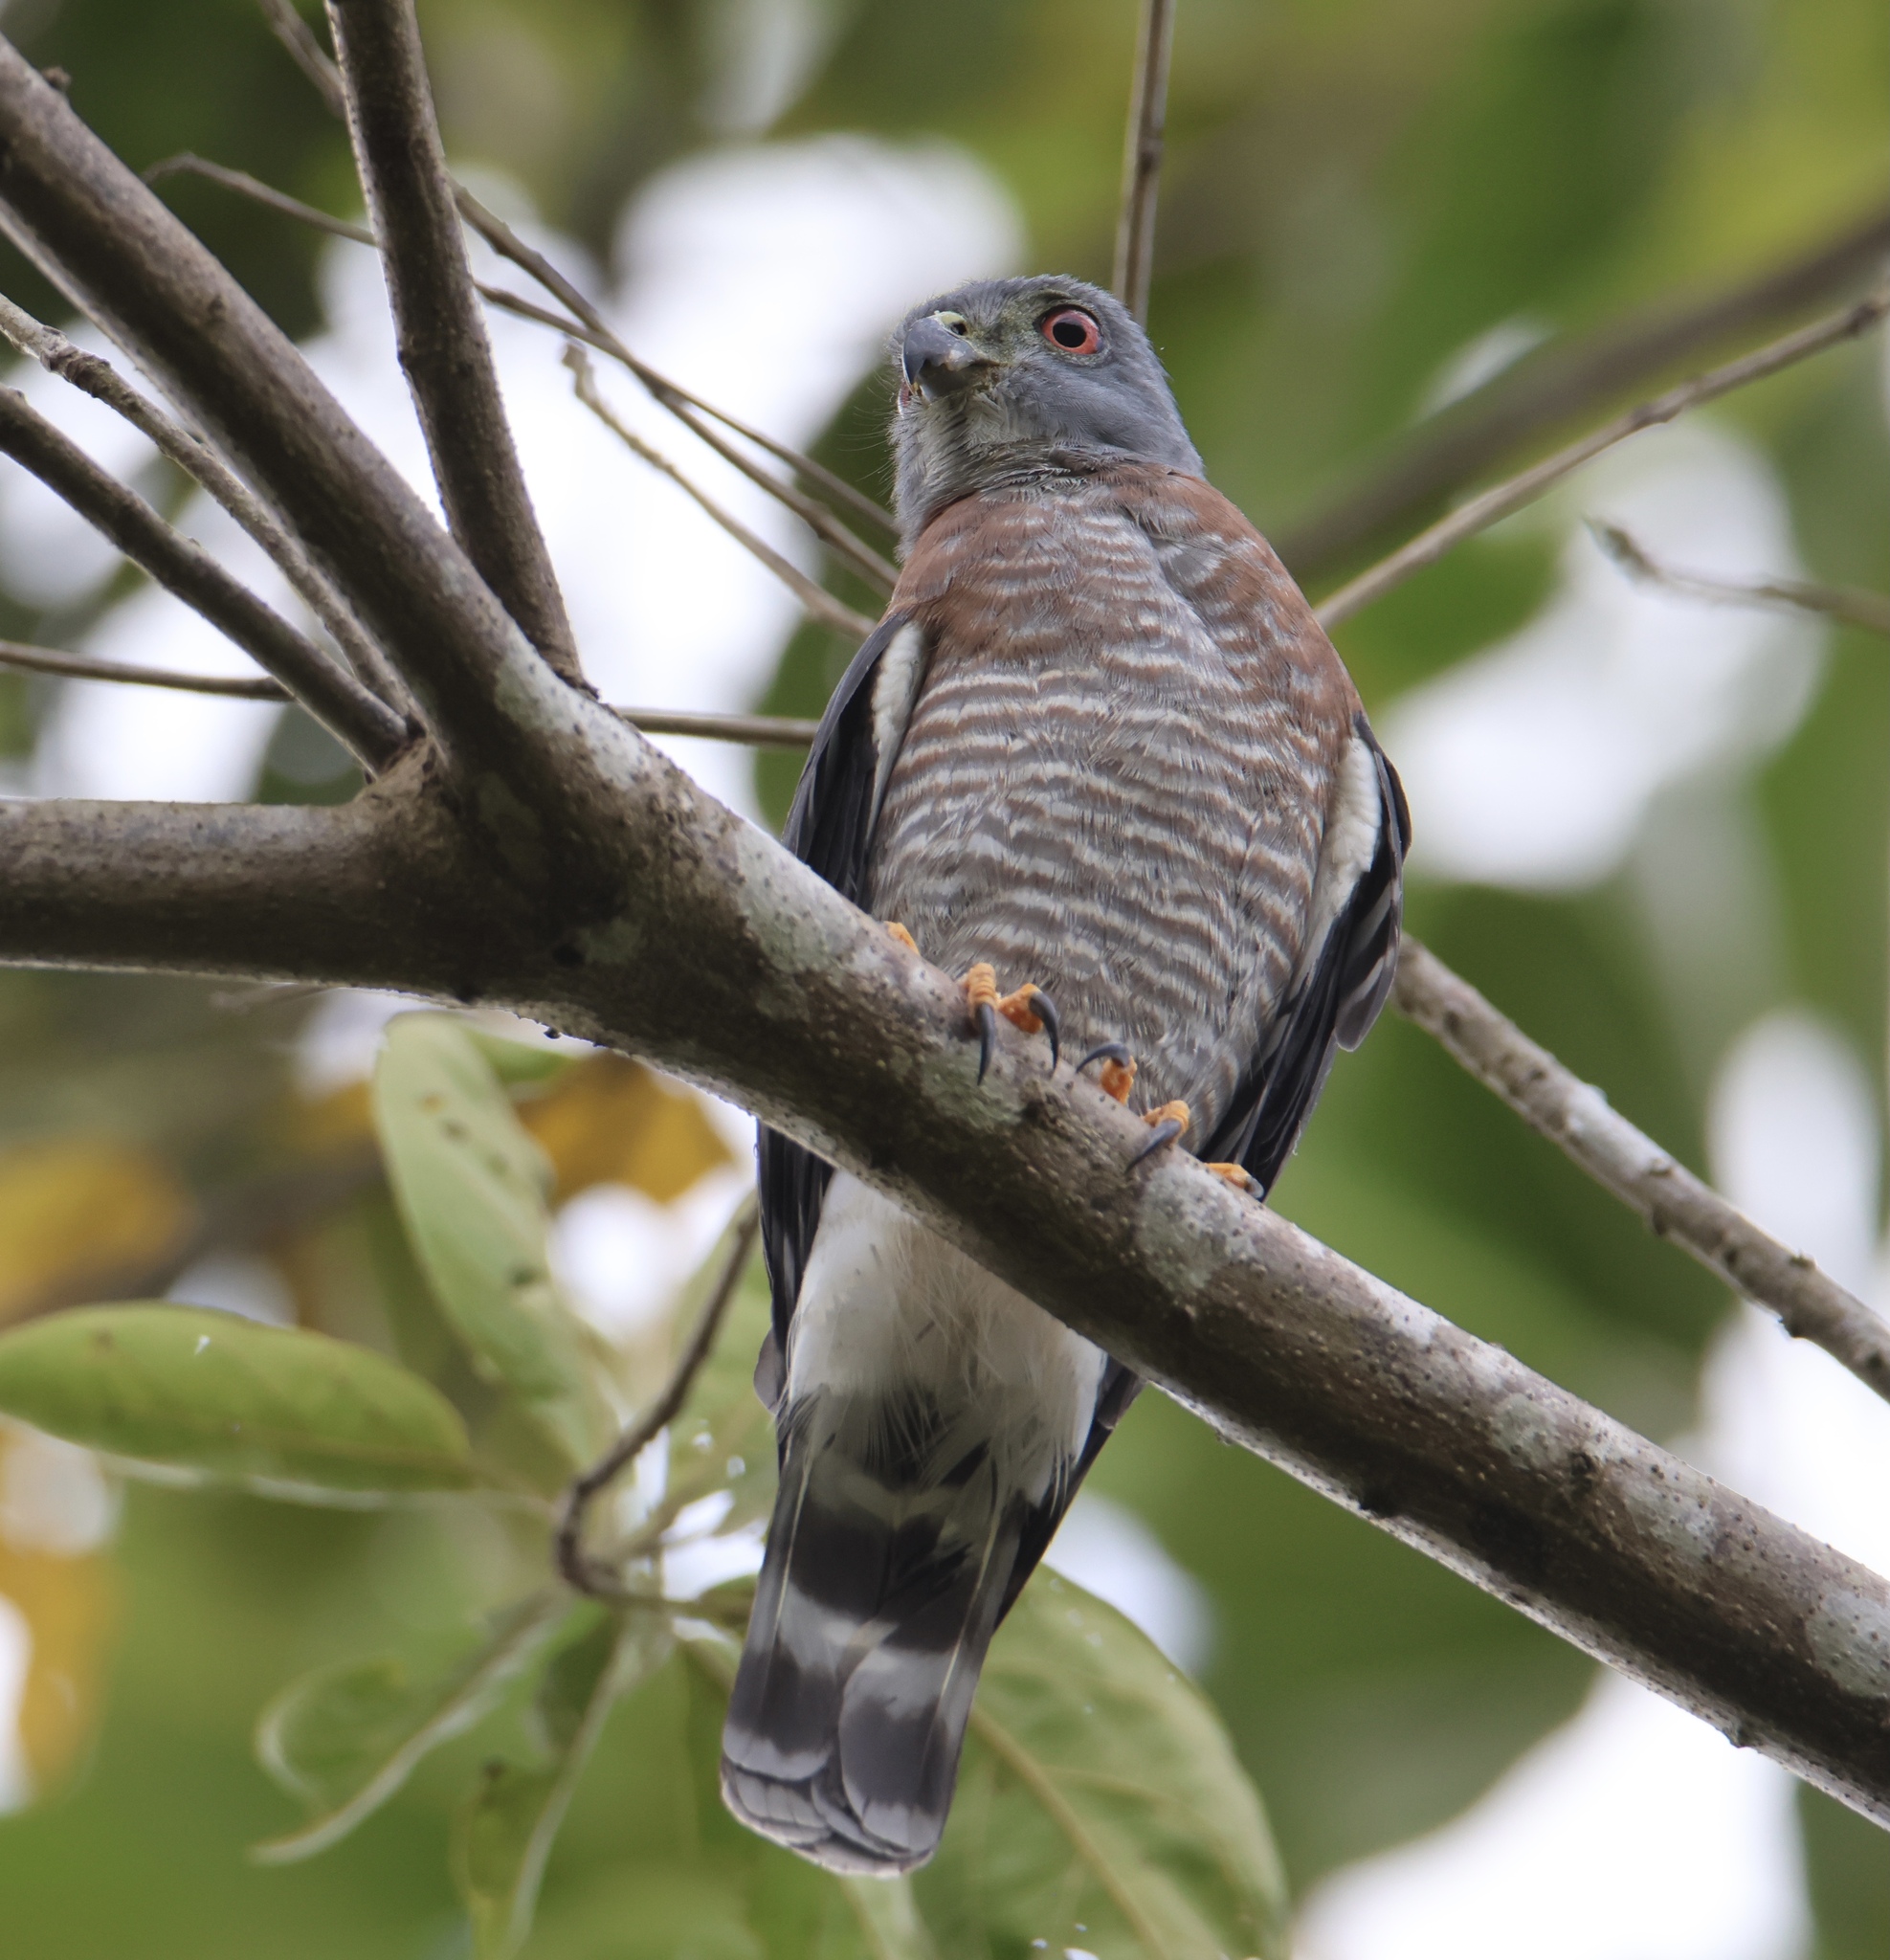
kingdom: Animalia
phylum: Chordata
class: Aves
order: Accipitriformes
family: Accipitridae
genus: Harpagus
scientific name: Harpagus bidentatus
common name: Double-toothed kite
